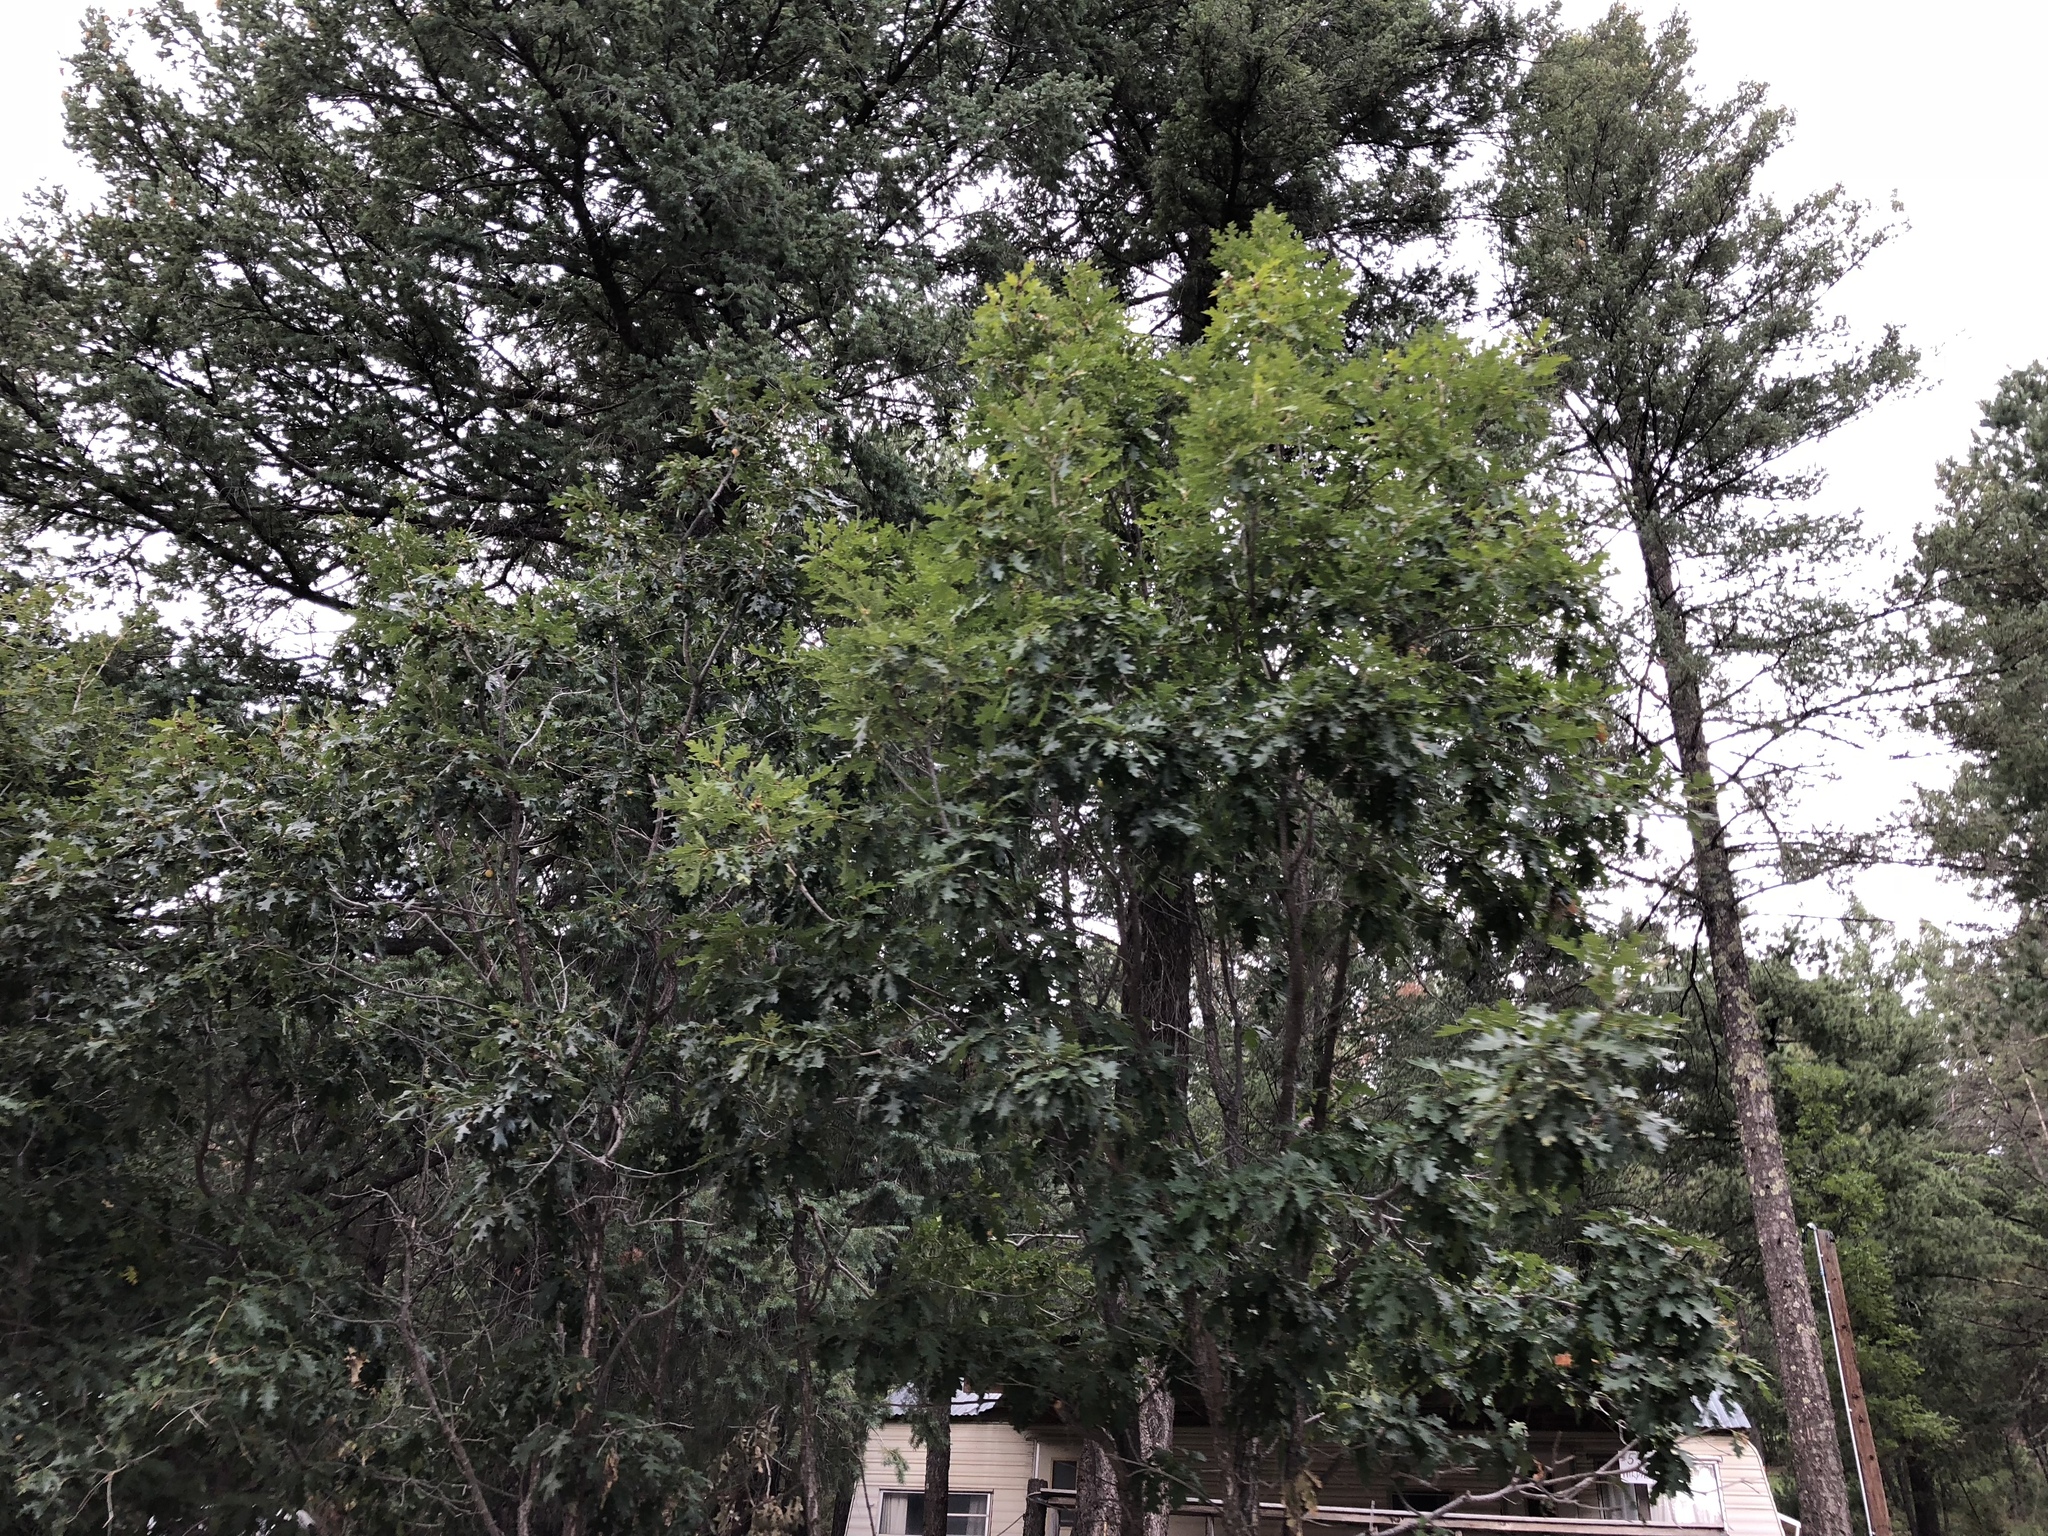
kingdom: Plantae
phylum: Tracheophyta
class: Magnoliopsida
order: Fagales
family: Fagaceae
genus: Quercus
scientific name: Quercus gambelii
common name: Gambel oak
